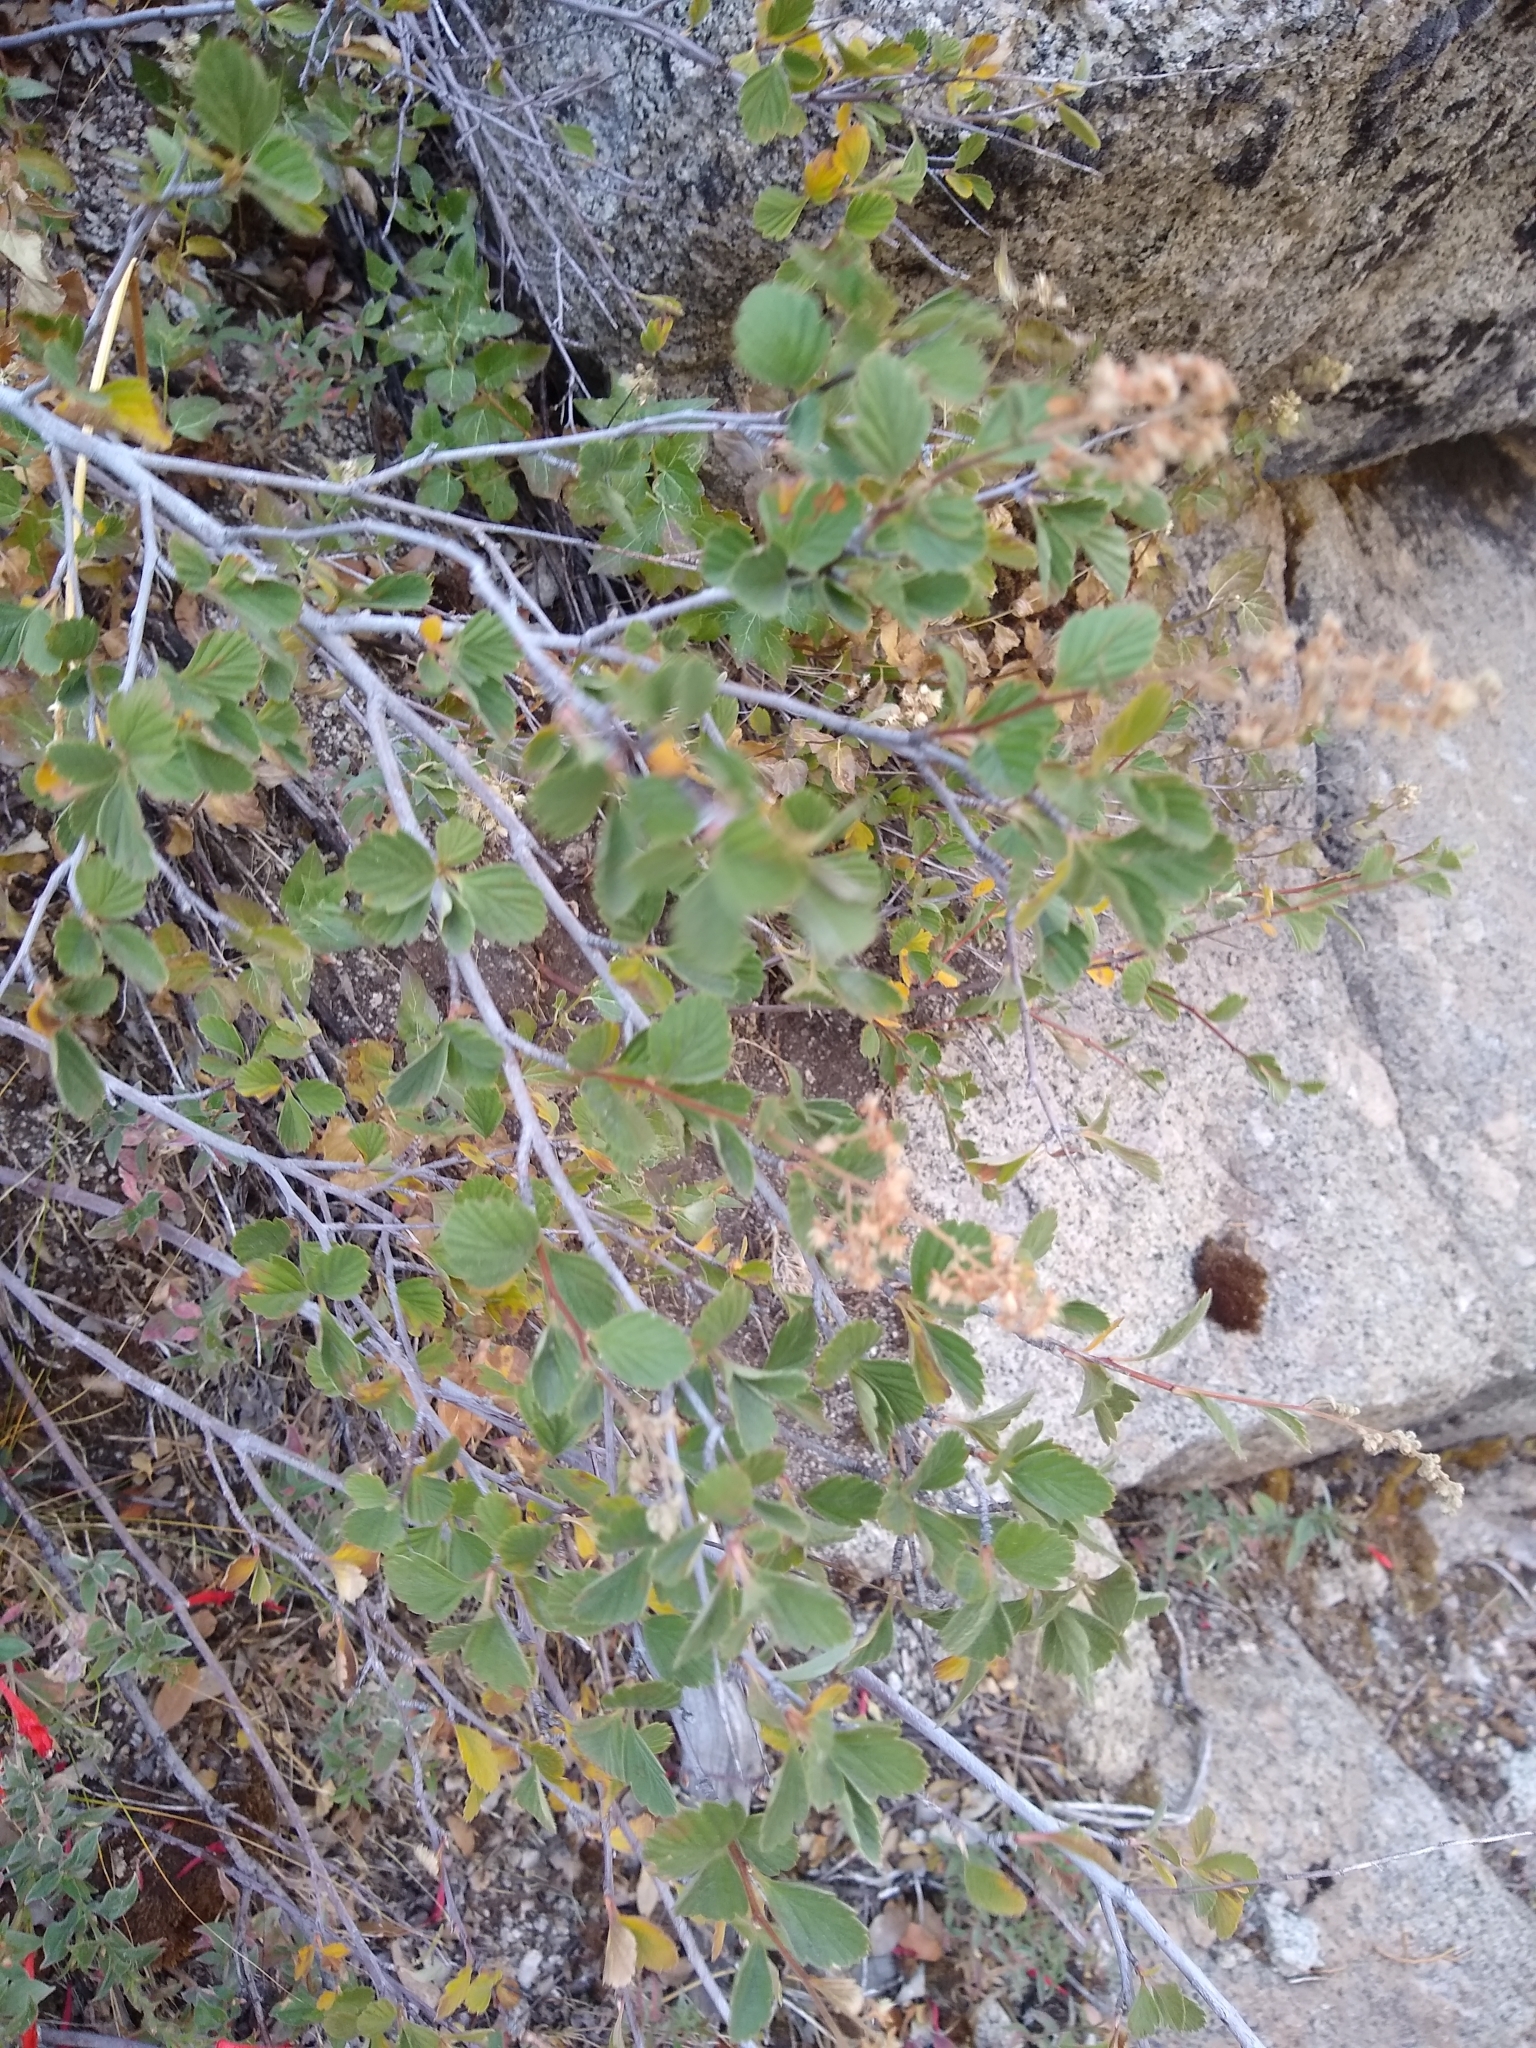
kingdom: Plantae
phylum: Tracheophyta
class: Magnoliopsida
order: Rosales
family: Rosaceae
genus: Holodiscus
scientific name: Holodiscus discolor
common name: Oceanspray
